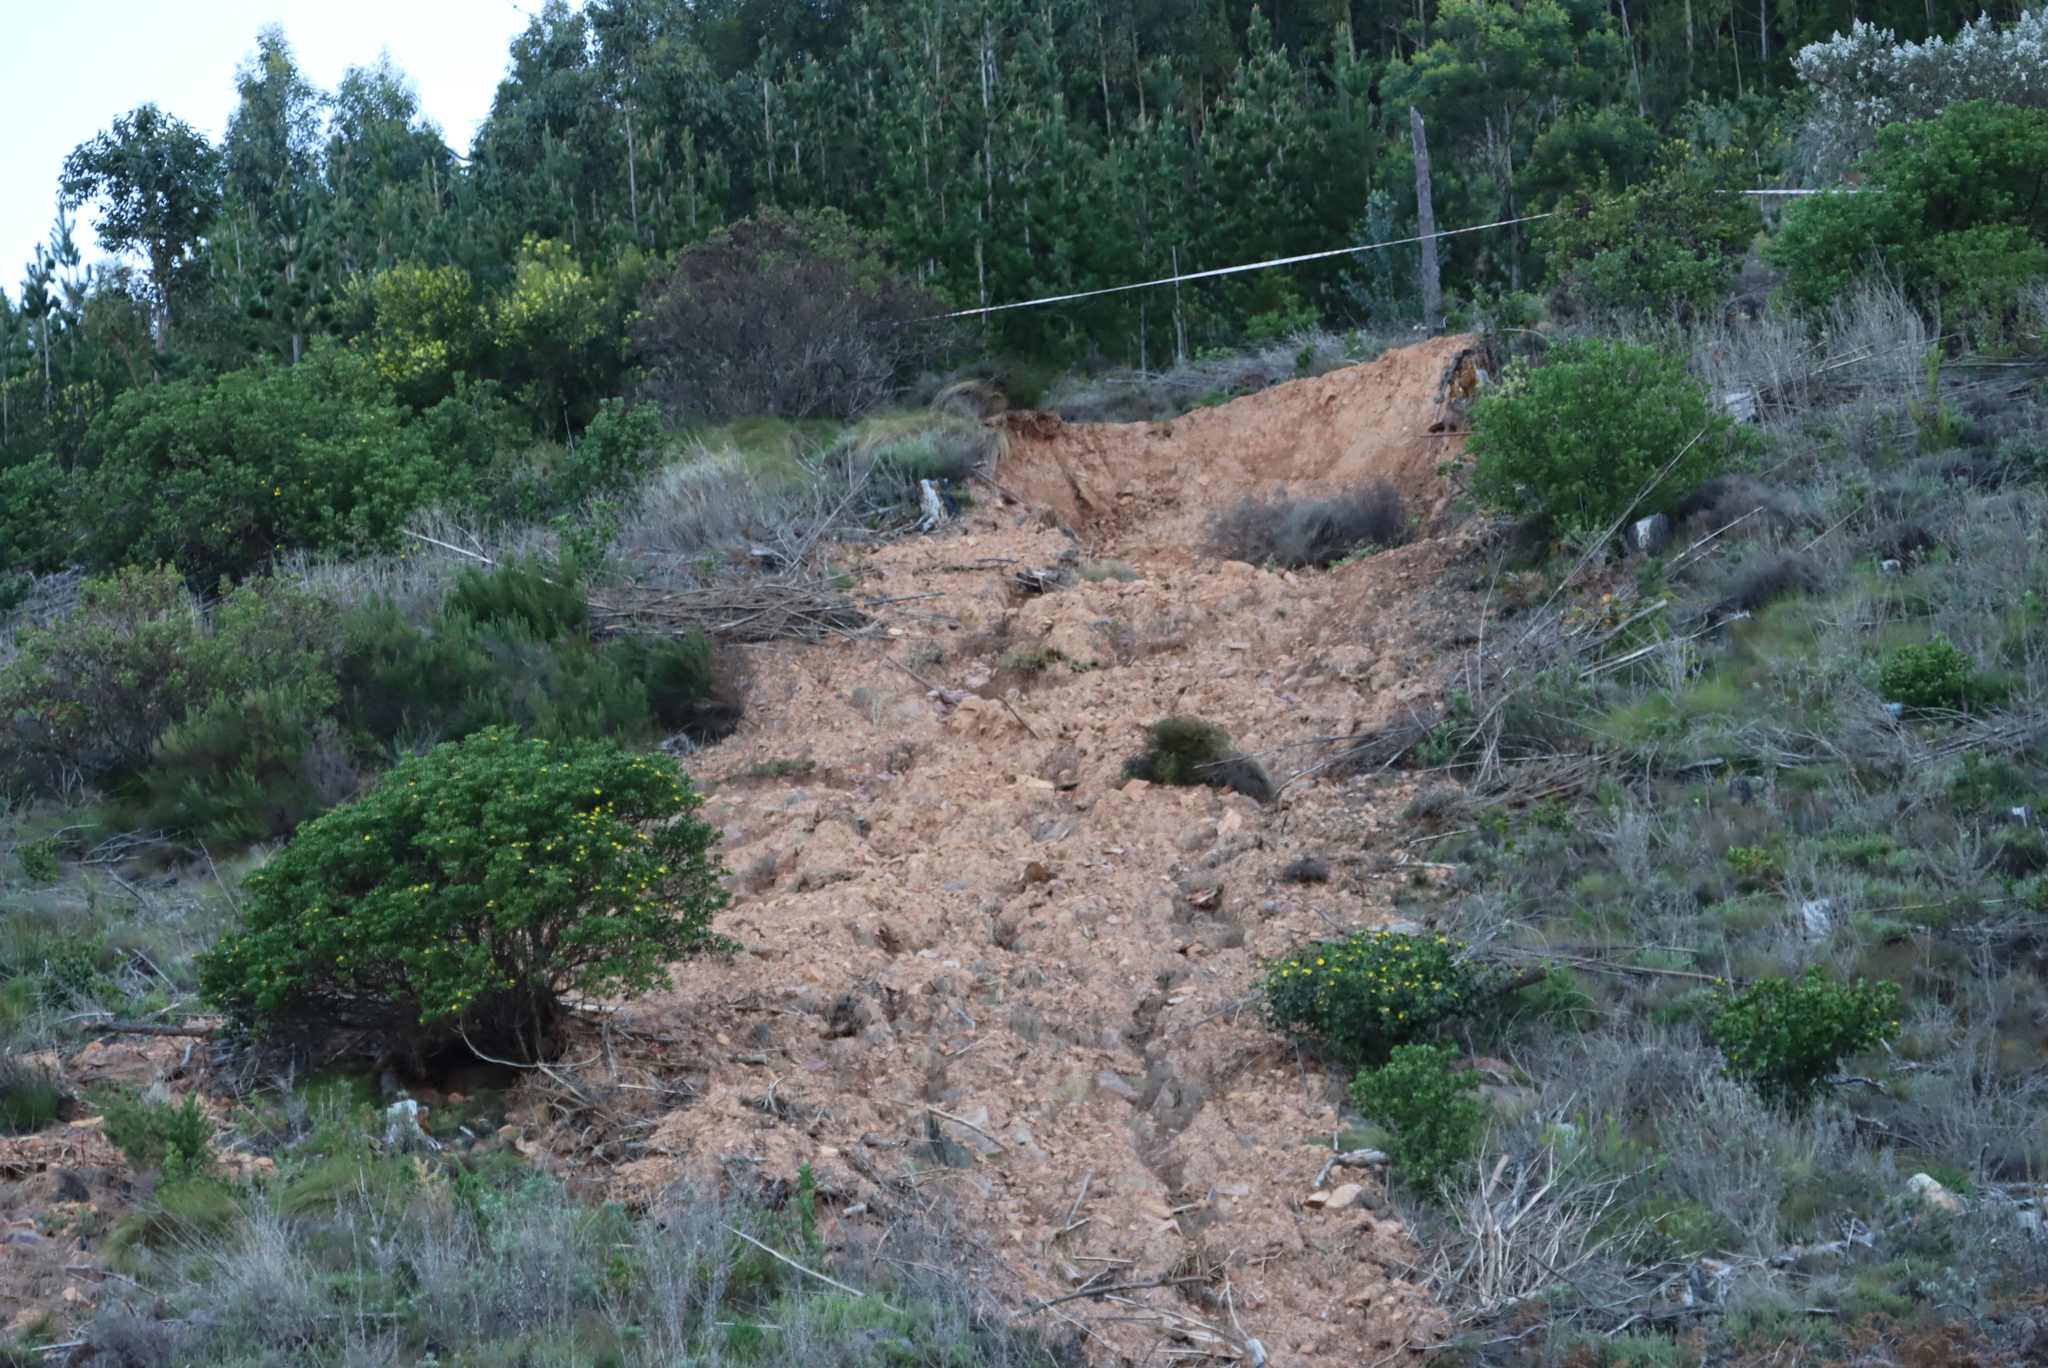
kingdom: Plantae
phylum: Tracheophyta
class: Magnoliopsida
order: Asterales
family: Asteraceae
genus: Osteospermum
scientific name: Osteospermum moniliferum
